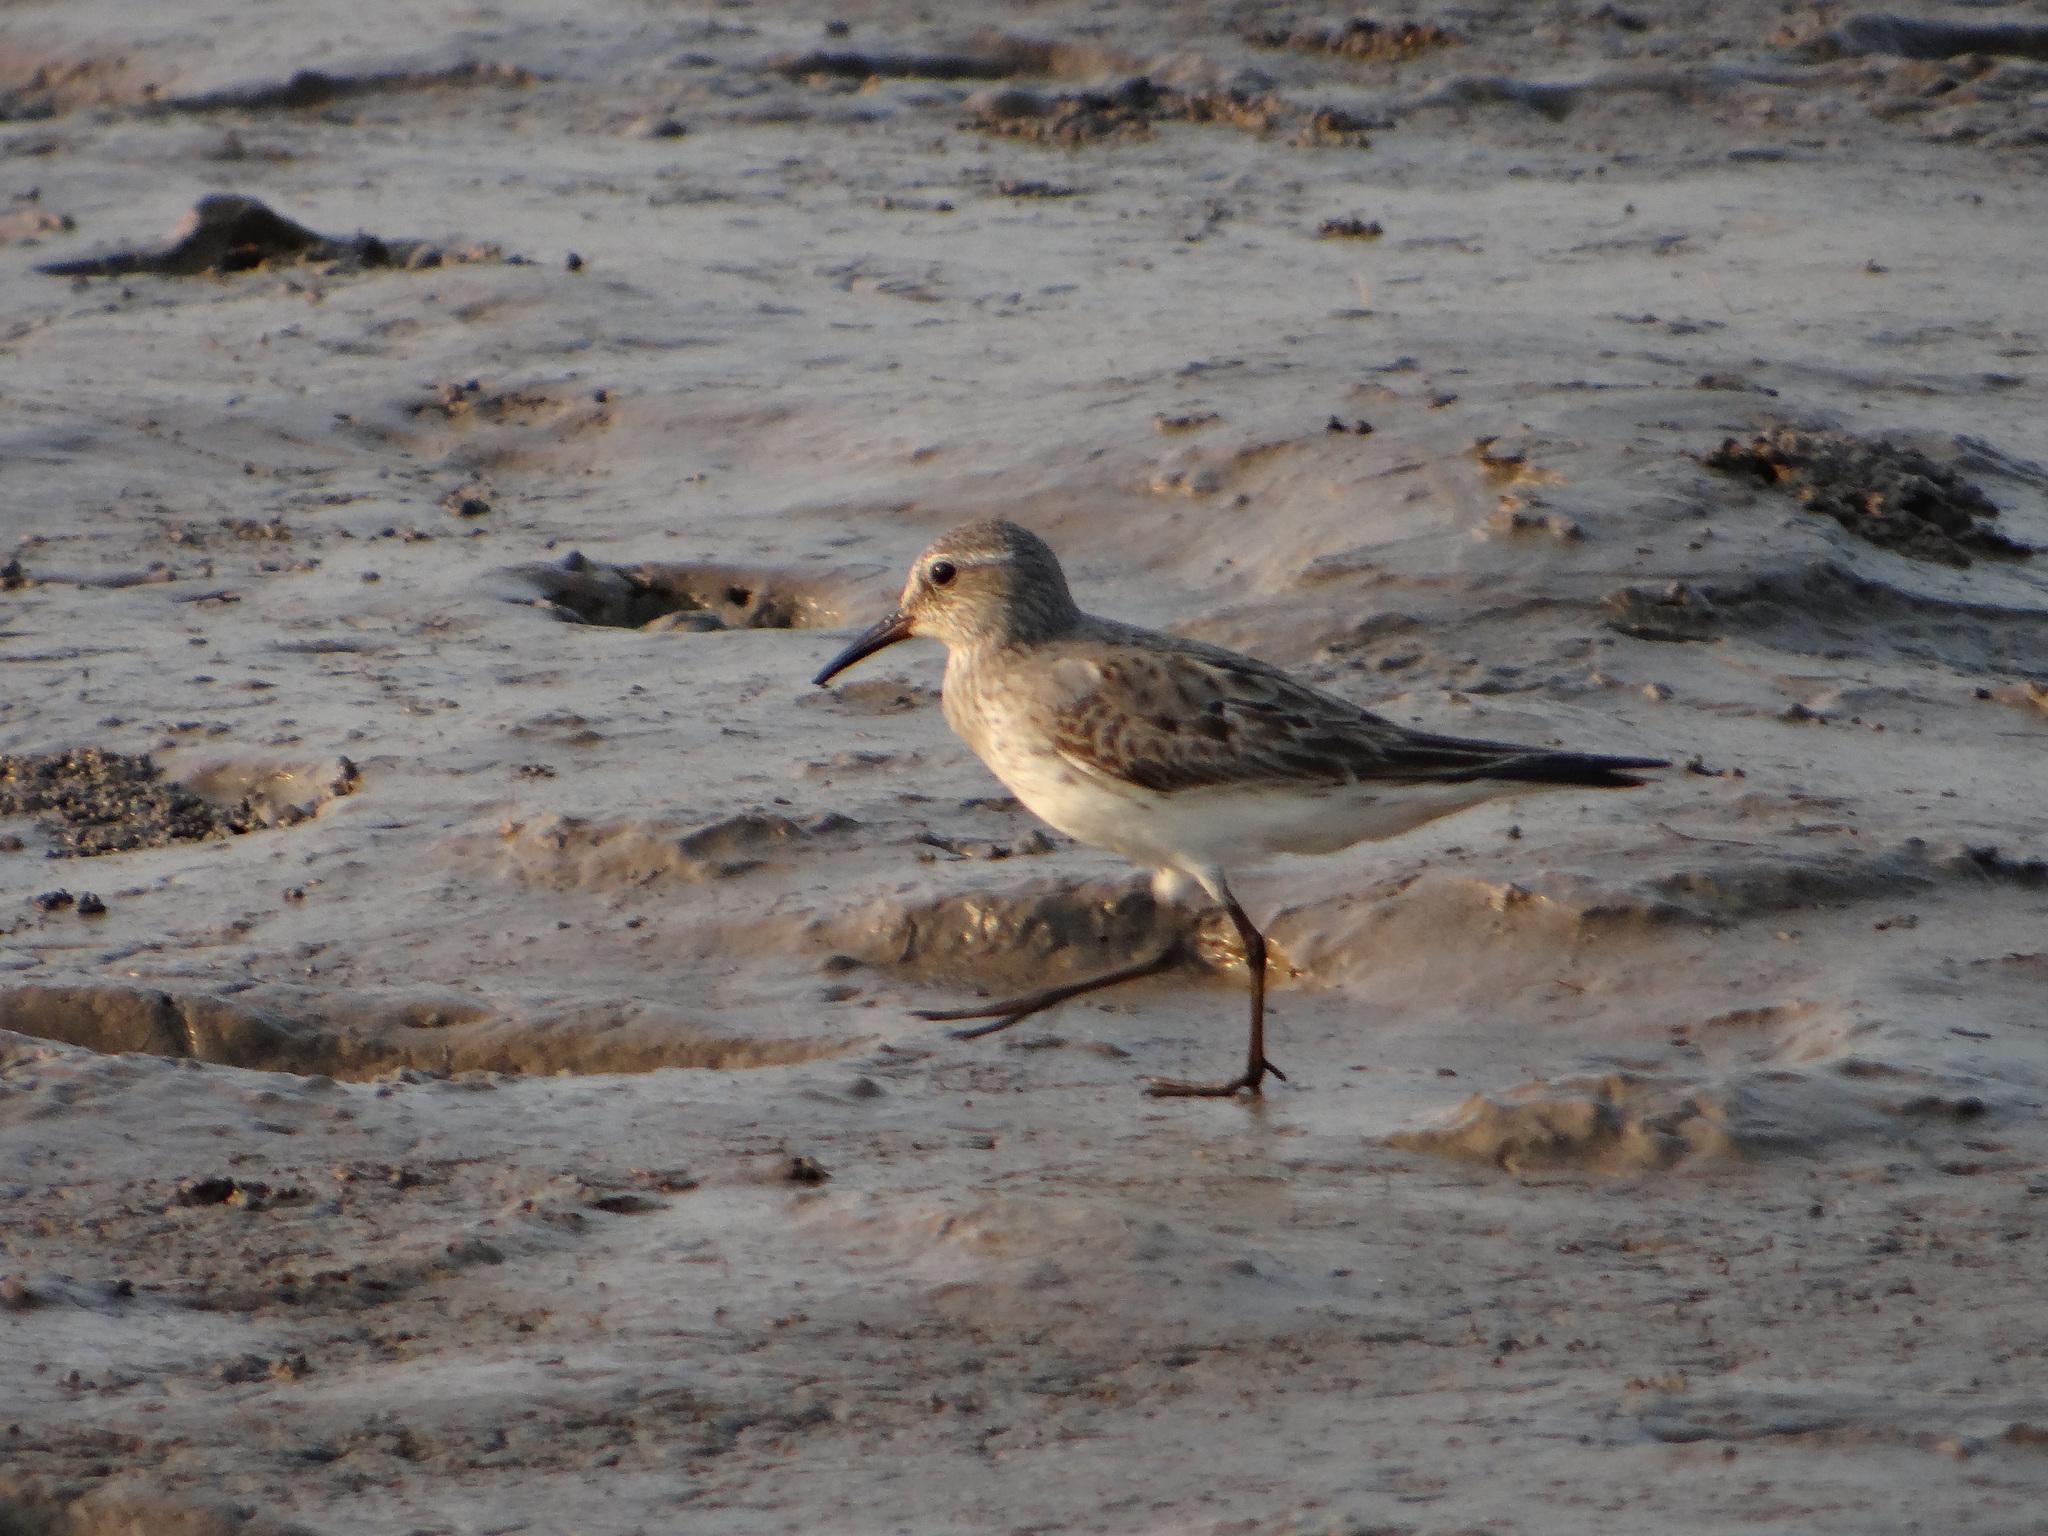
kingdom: Animalia
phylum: Chordata
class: Aves
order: Charadriiformes
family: Scolopacidae
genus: Calidris
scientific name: Calidris fuscicollis
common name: White-rumped sandpiper
